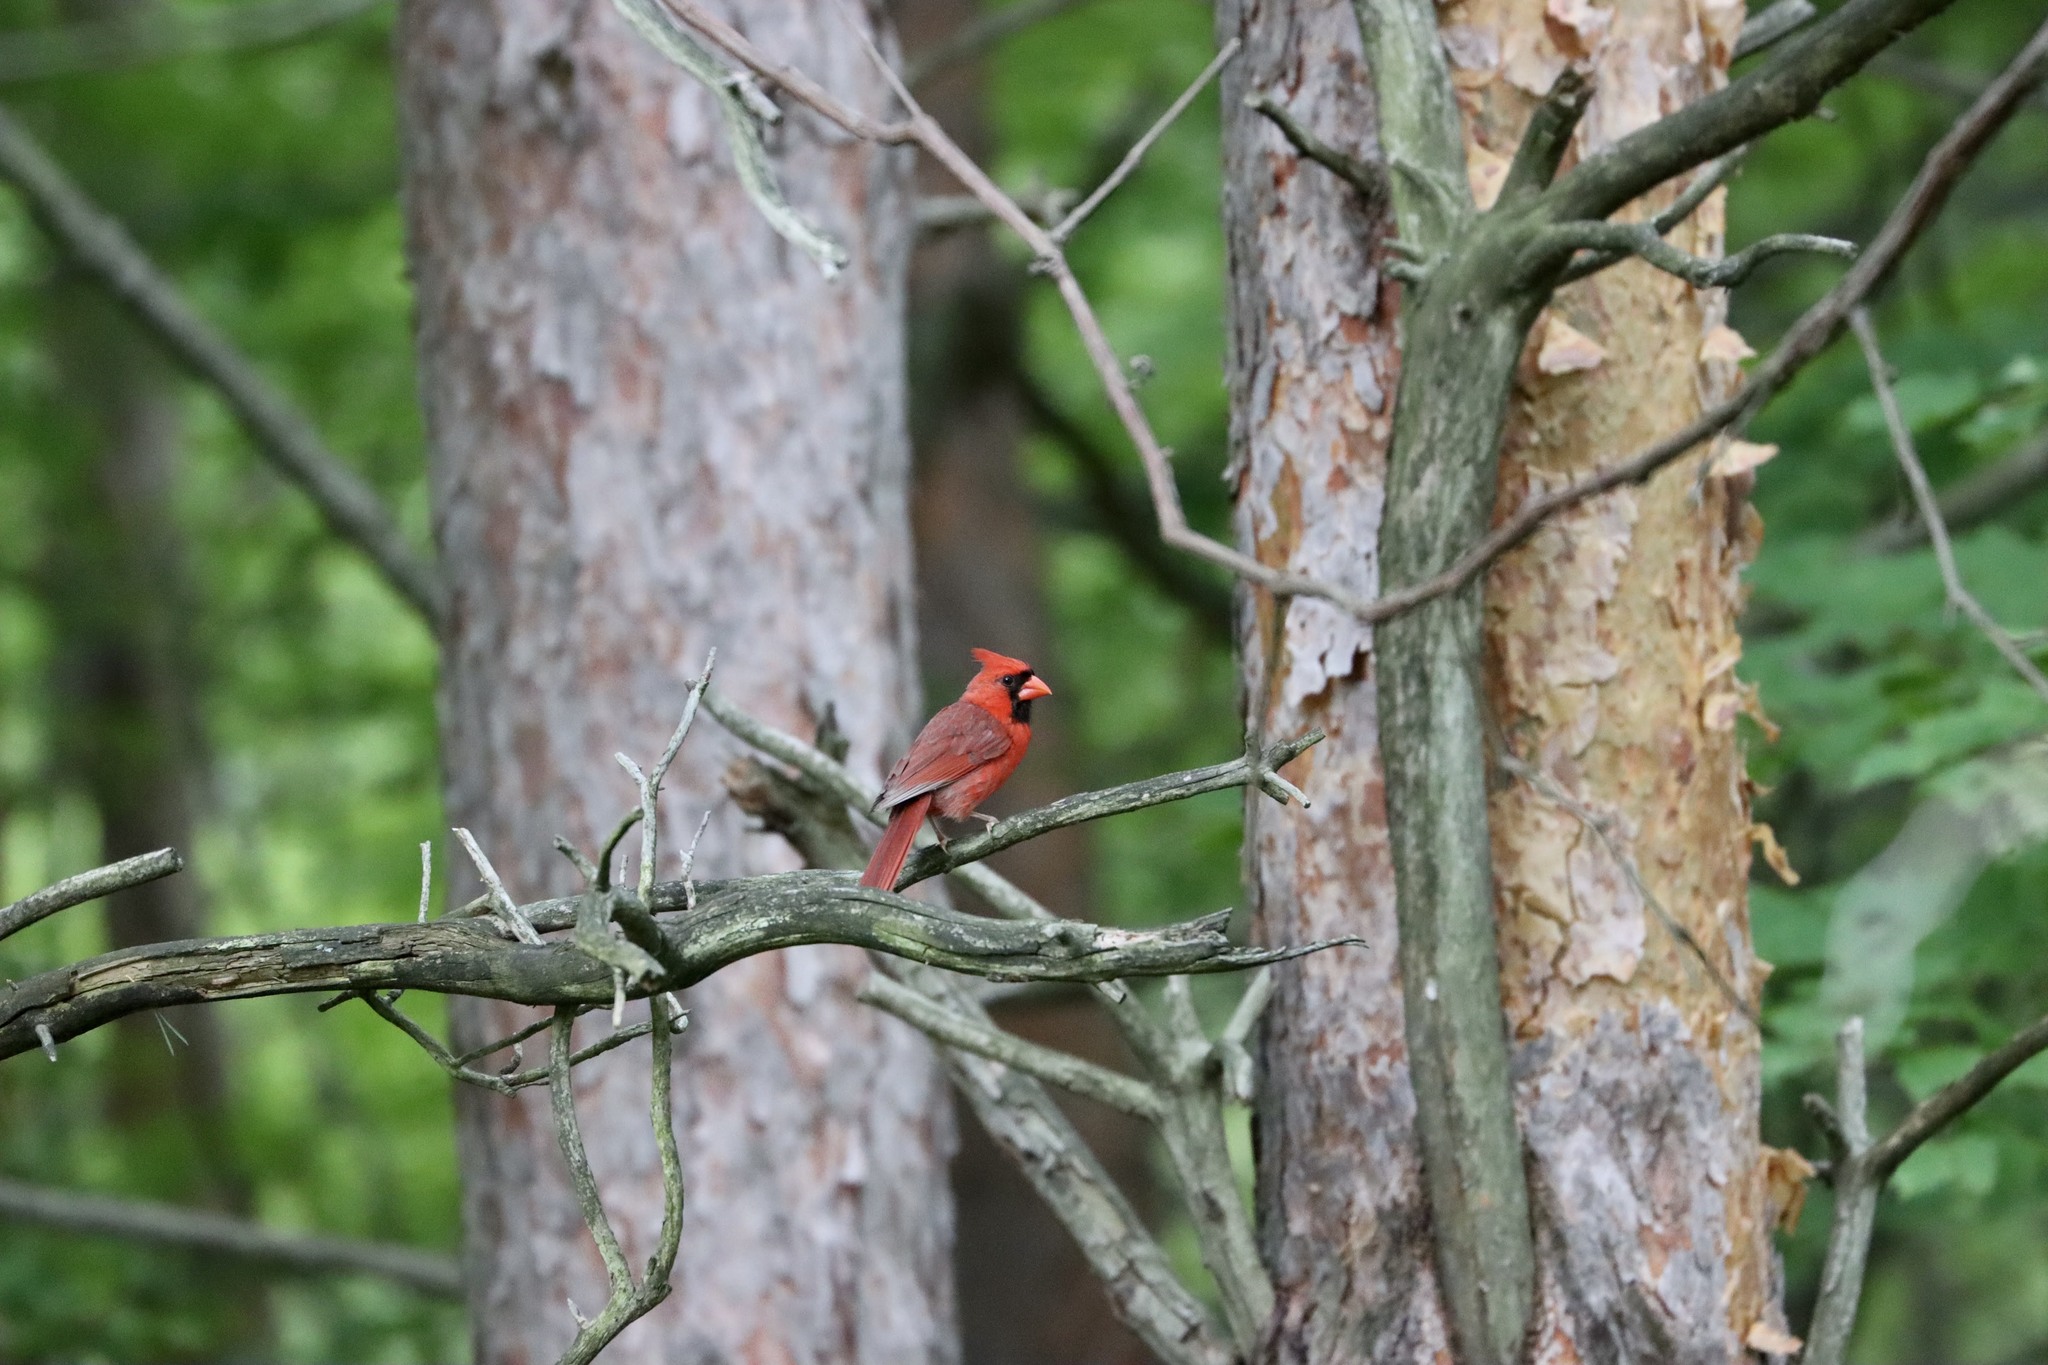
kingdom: Animalia
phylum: Chordata
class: Aves
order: Passeriformes
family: Cardinalidae
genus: Cardinalis
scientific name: Cardinalis cardinalis
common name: Northern cardinal
